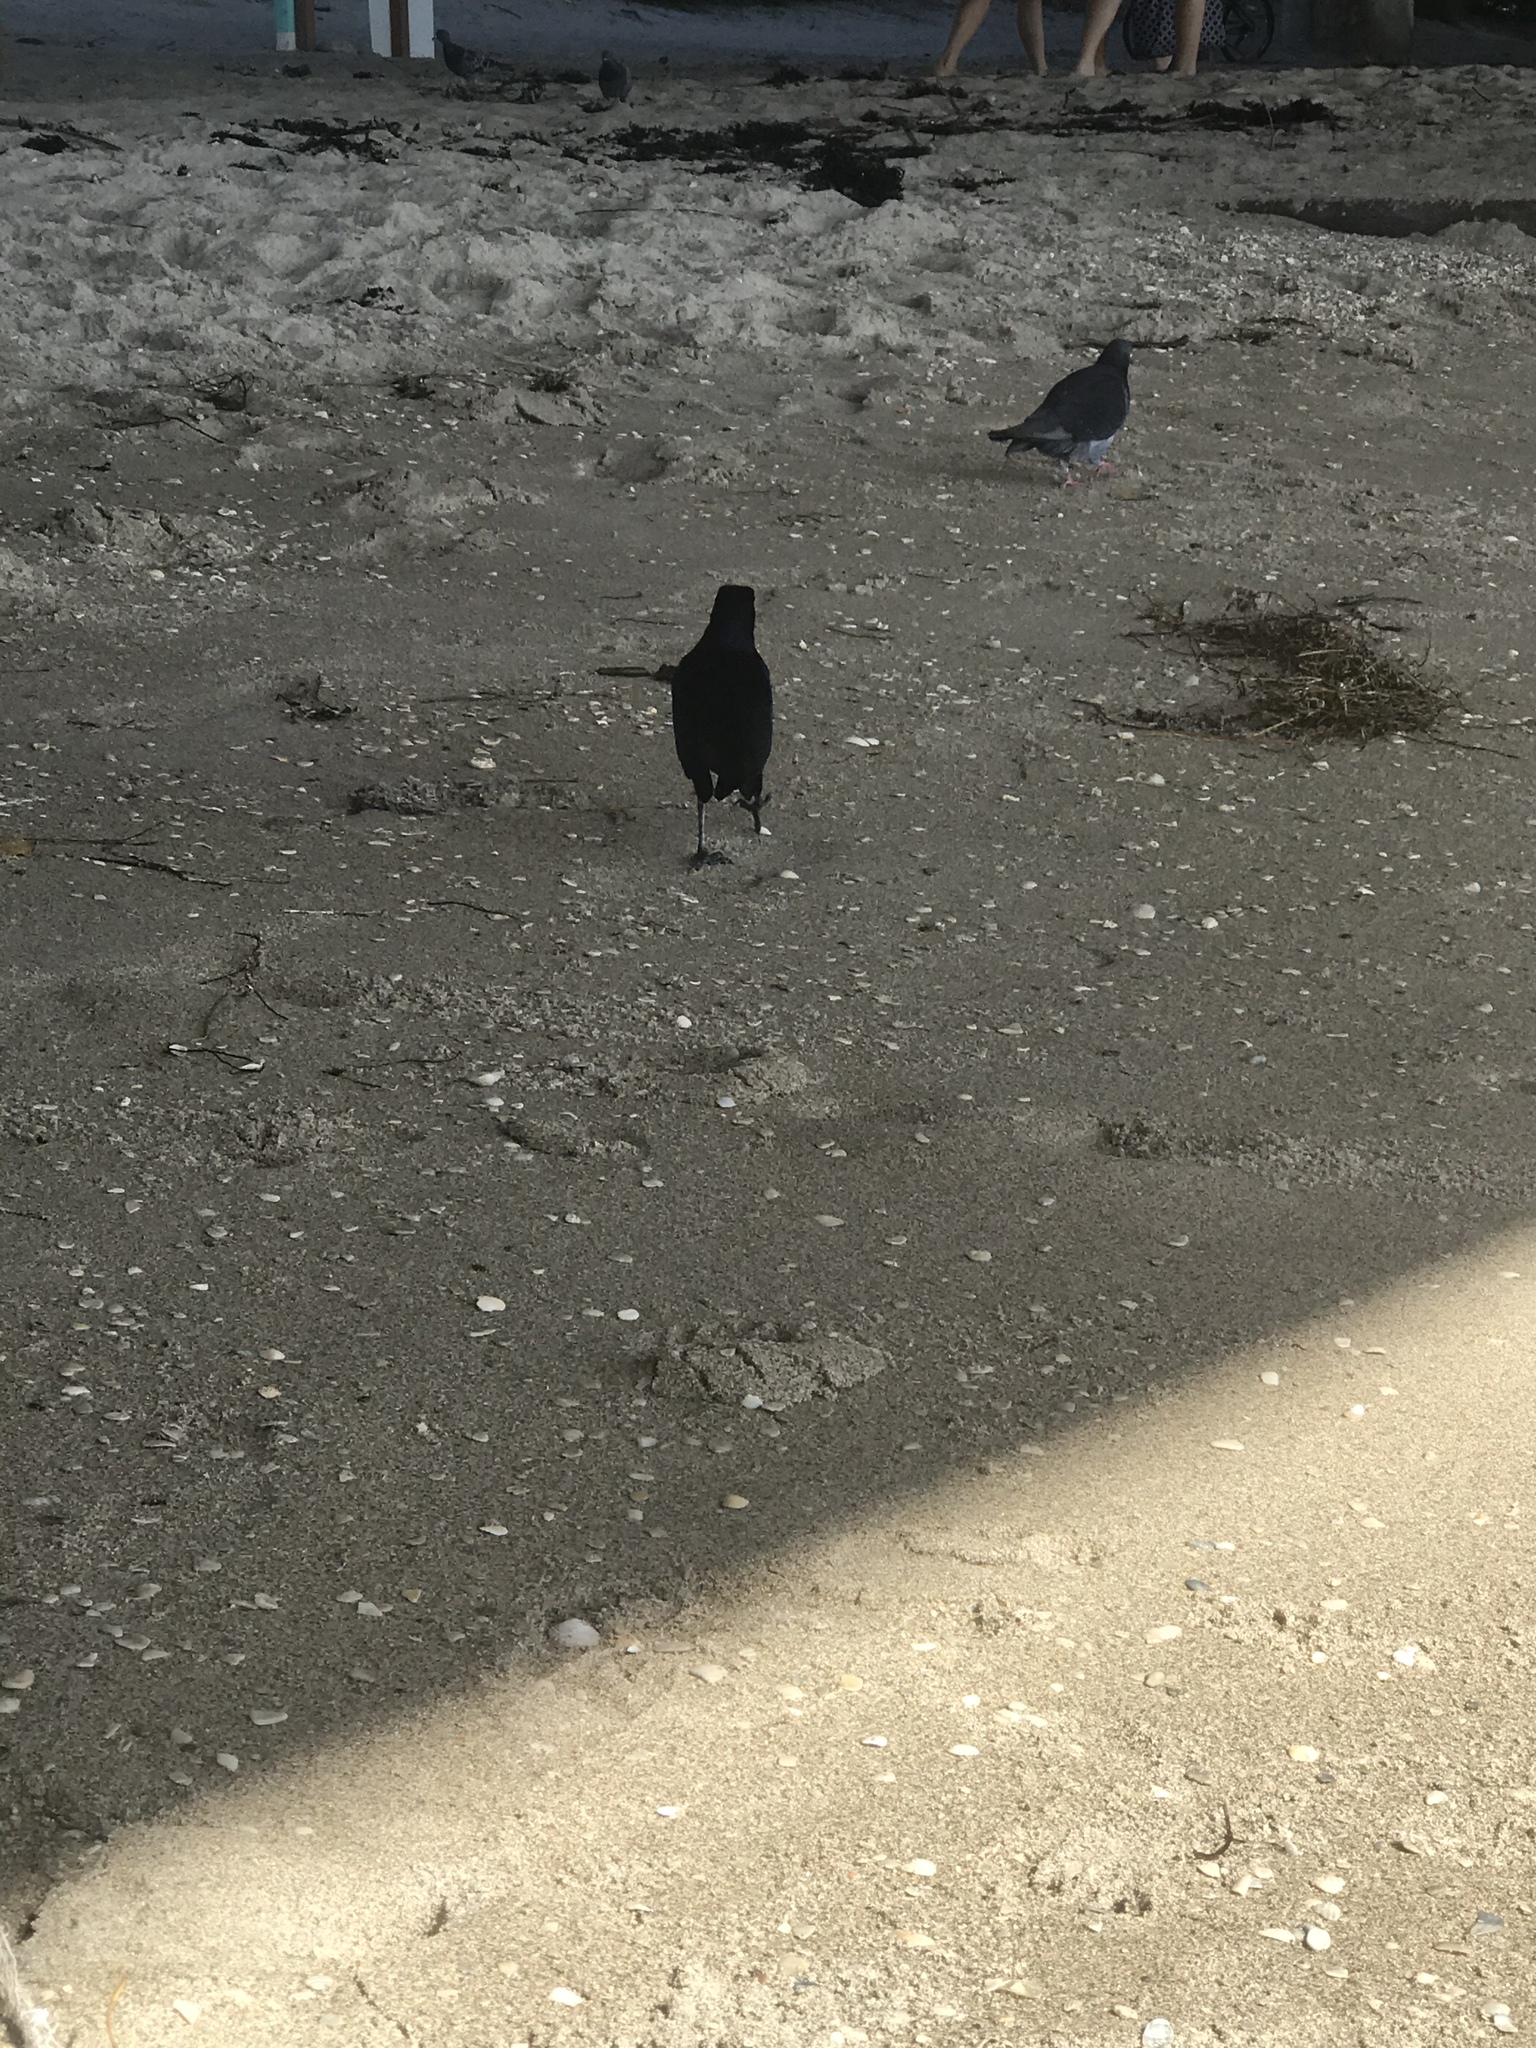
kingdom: Animalia
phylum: Chordata
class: Aves
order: Passeriformes
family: Icteridae
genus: Quiscalus
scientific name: Quiscalus major
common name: Boat-tailed grackle
